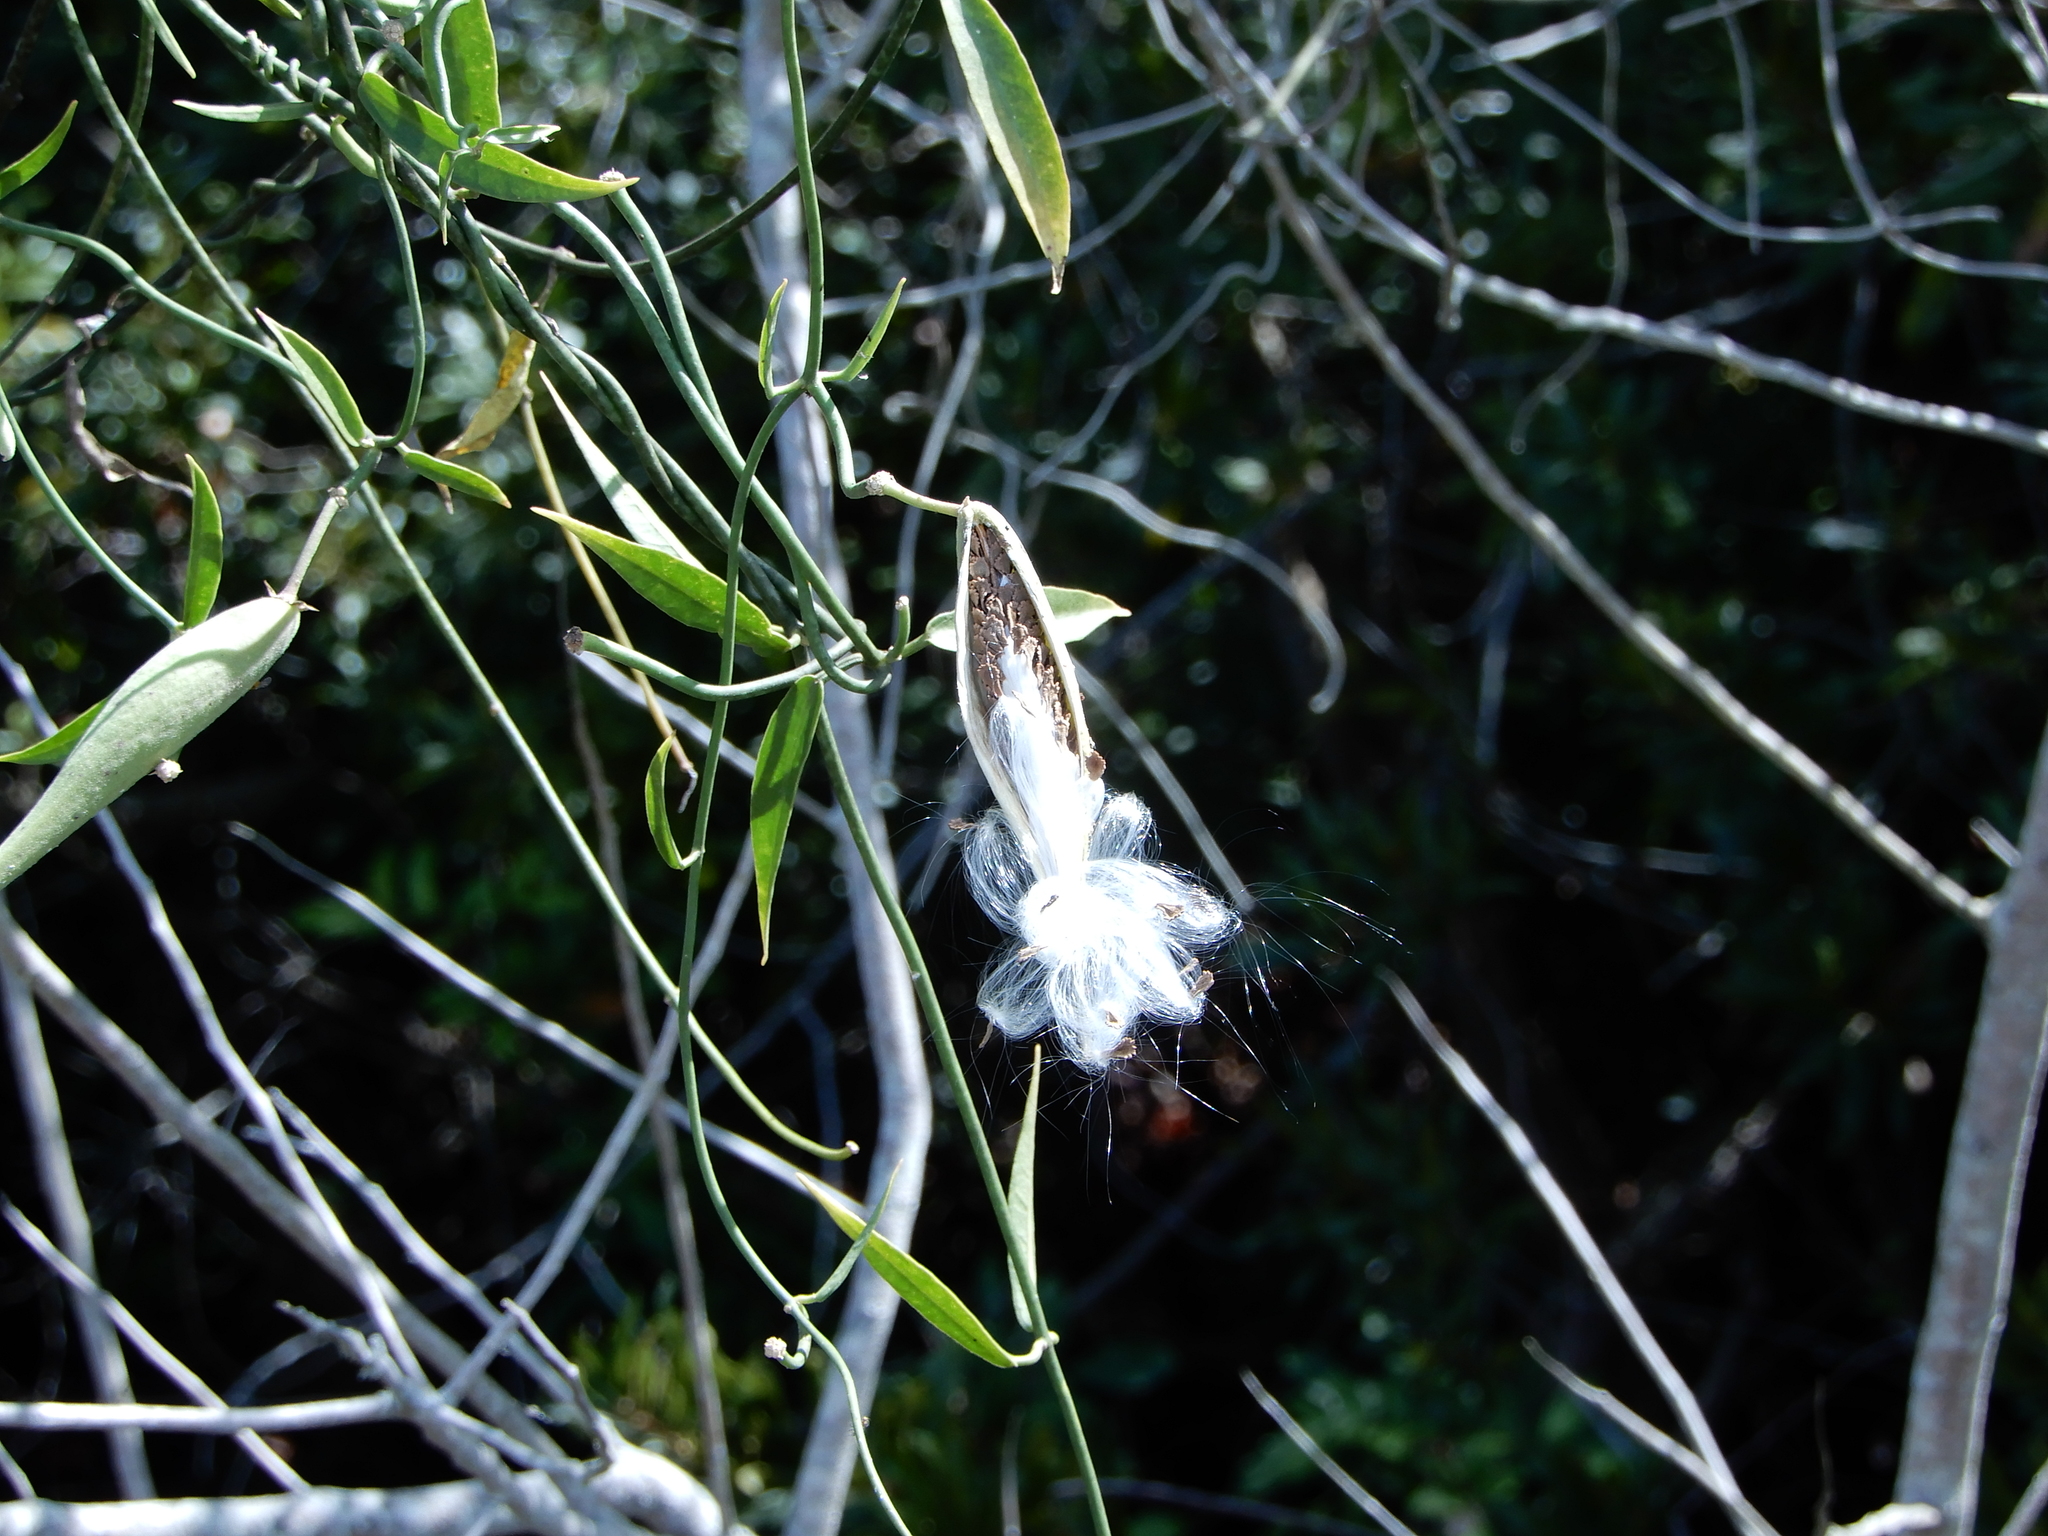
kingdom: Plantae
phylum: Tracheophyta
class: Magnoliopsida
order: Gentianales
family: Apocynaceae
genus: Funastrum
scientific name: Funastrum clausum
